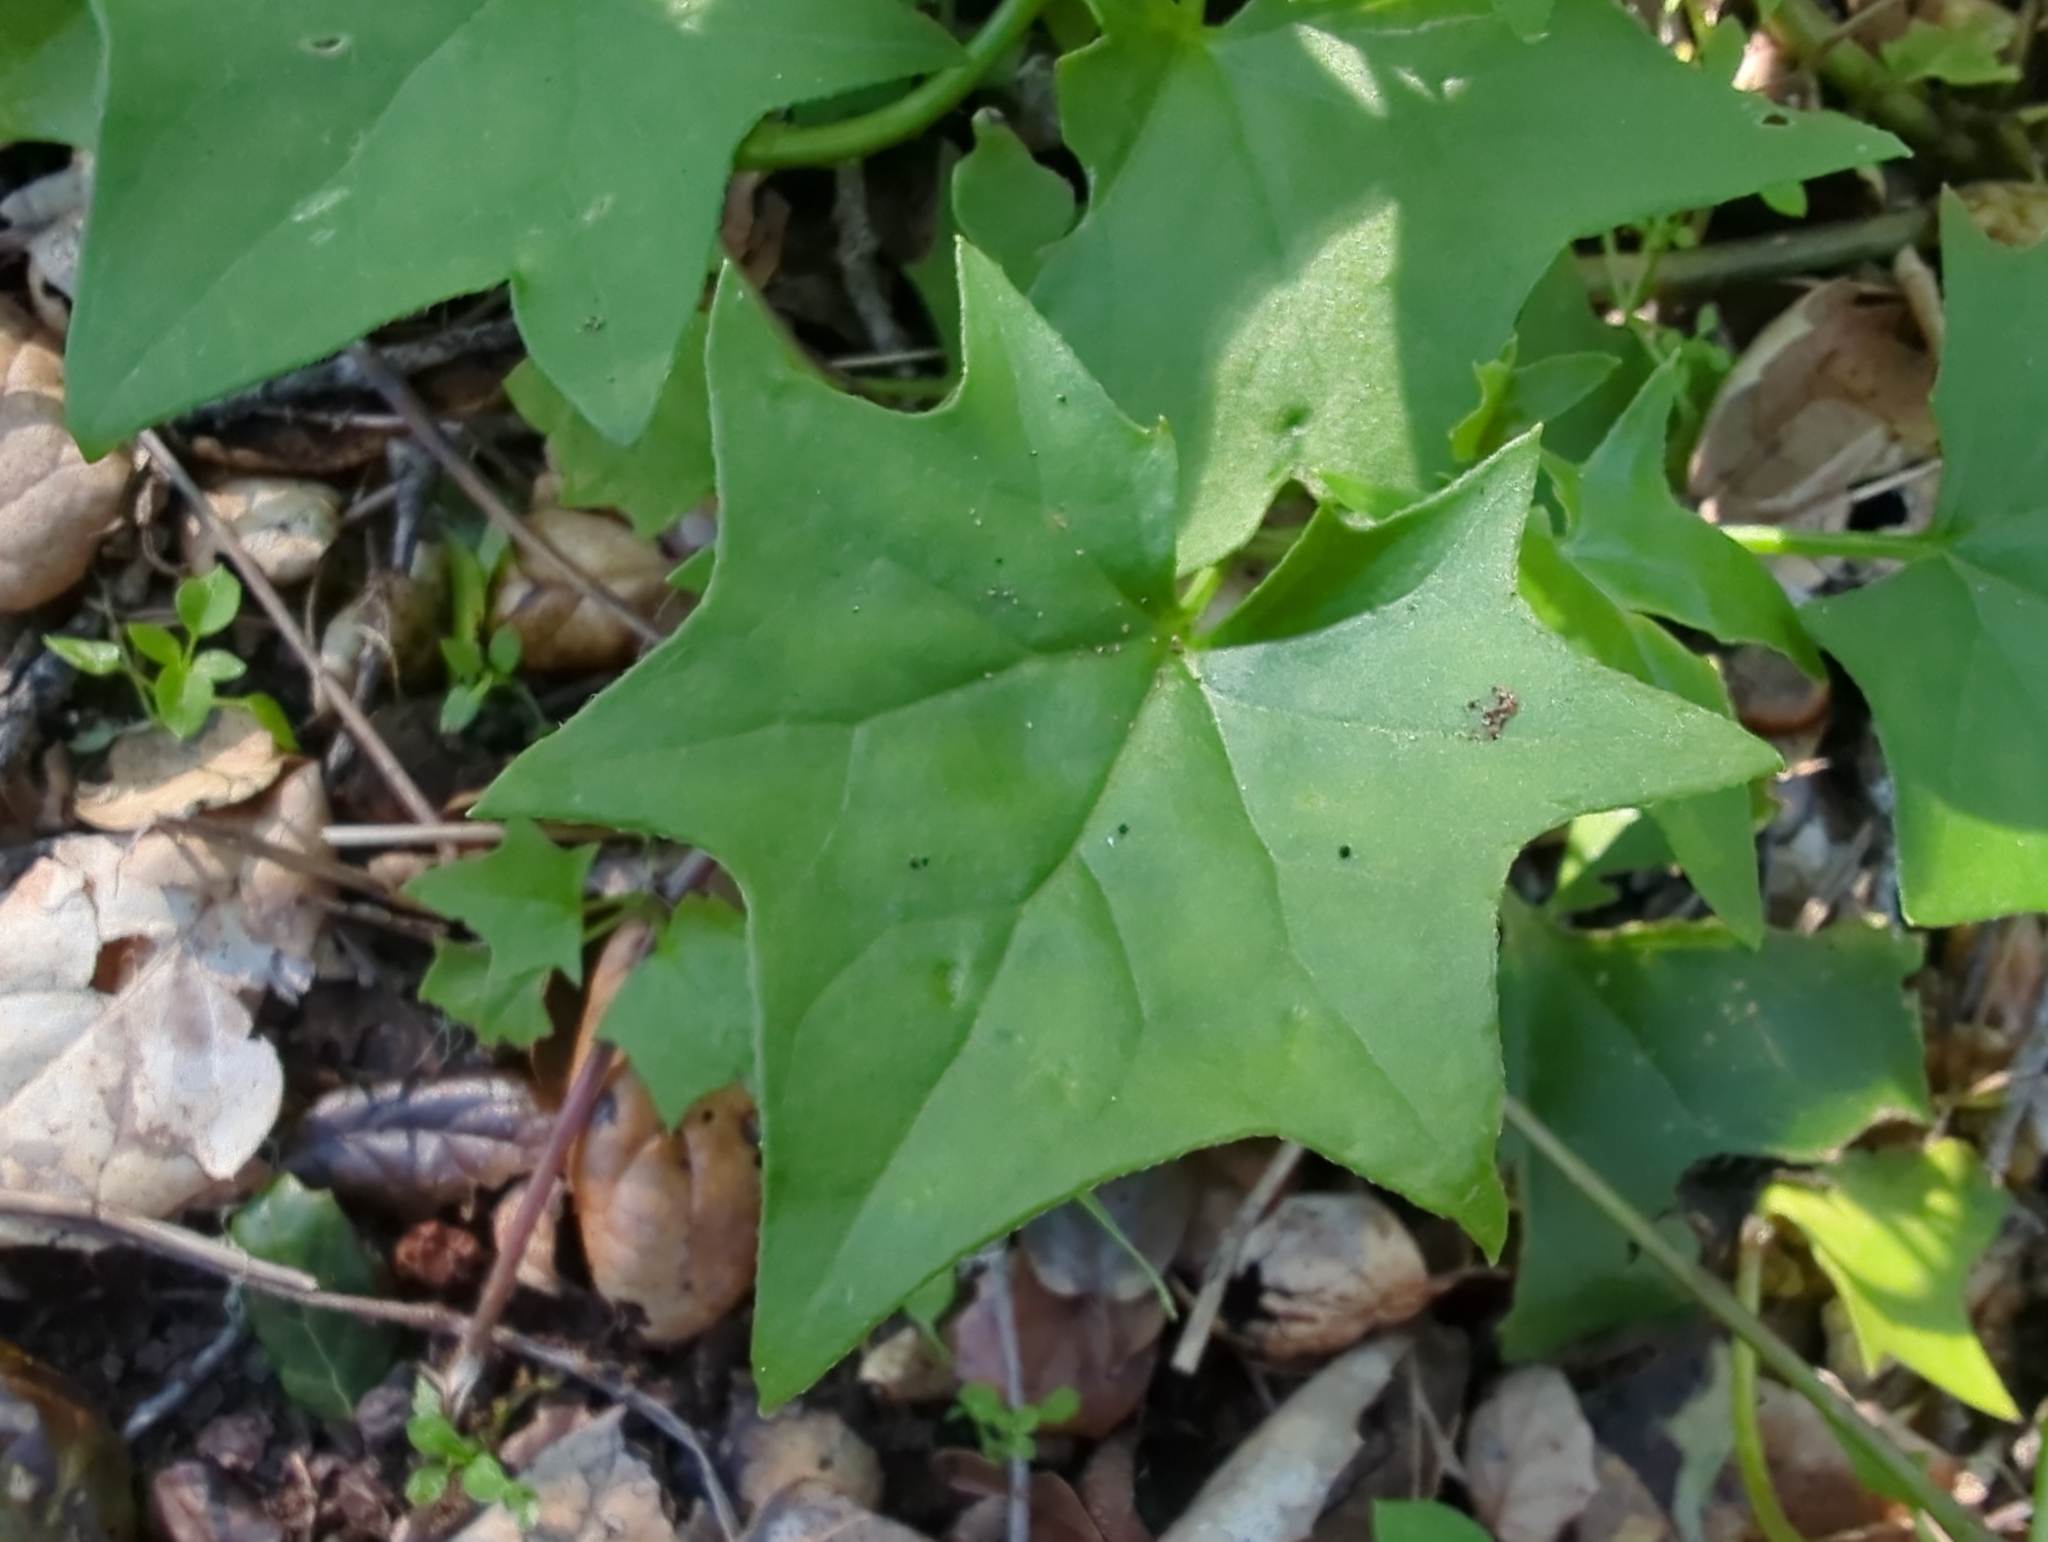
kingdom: Plantae
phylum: Tracheophyta
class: Magnoliopsida
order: Asterales
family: Asteraceae
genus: Delairea
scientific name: Delairea odorata
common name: Cape-ivy
